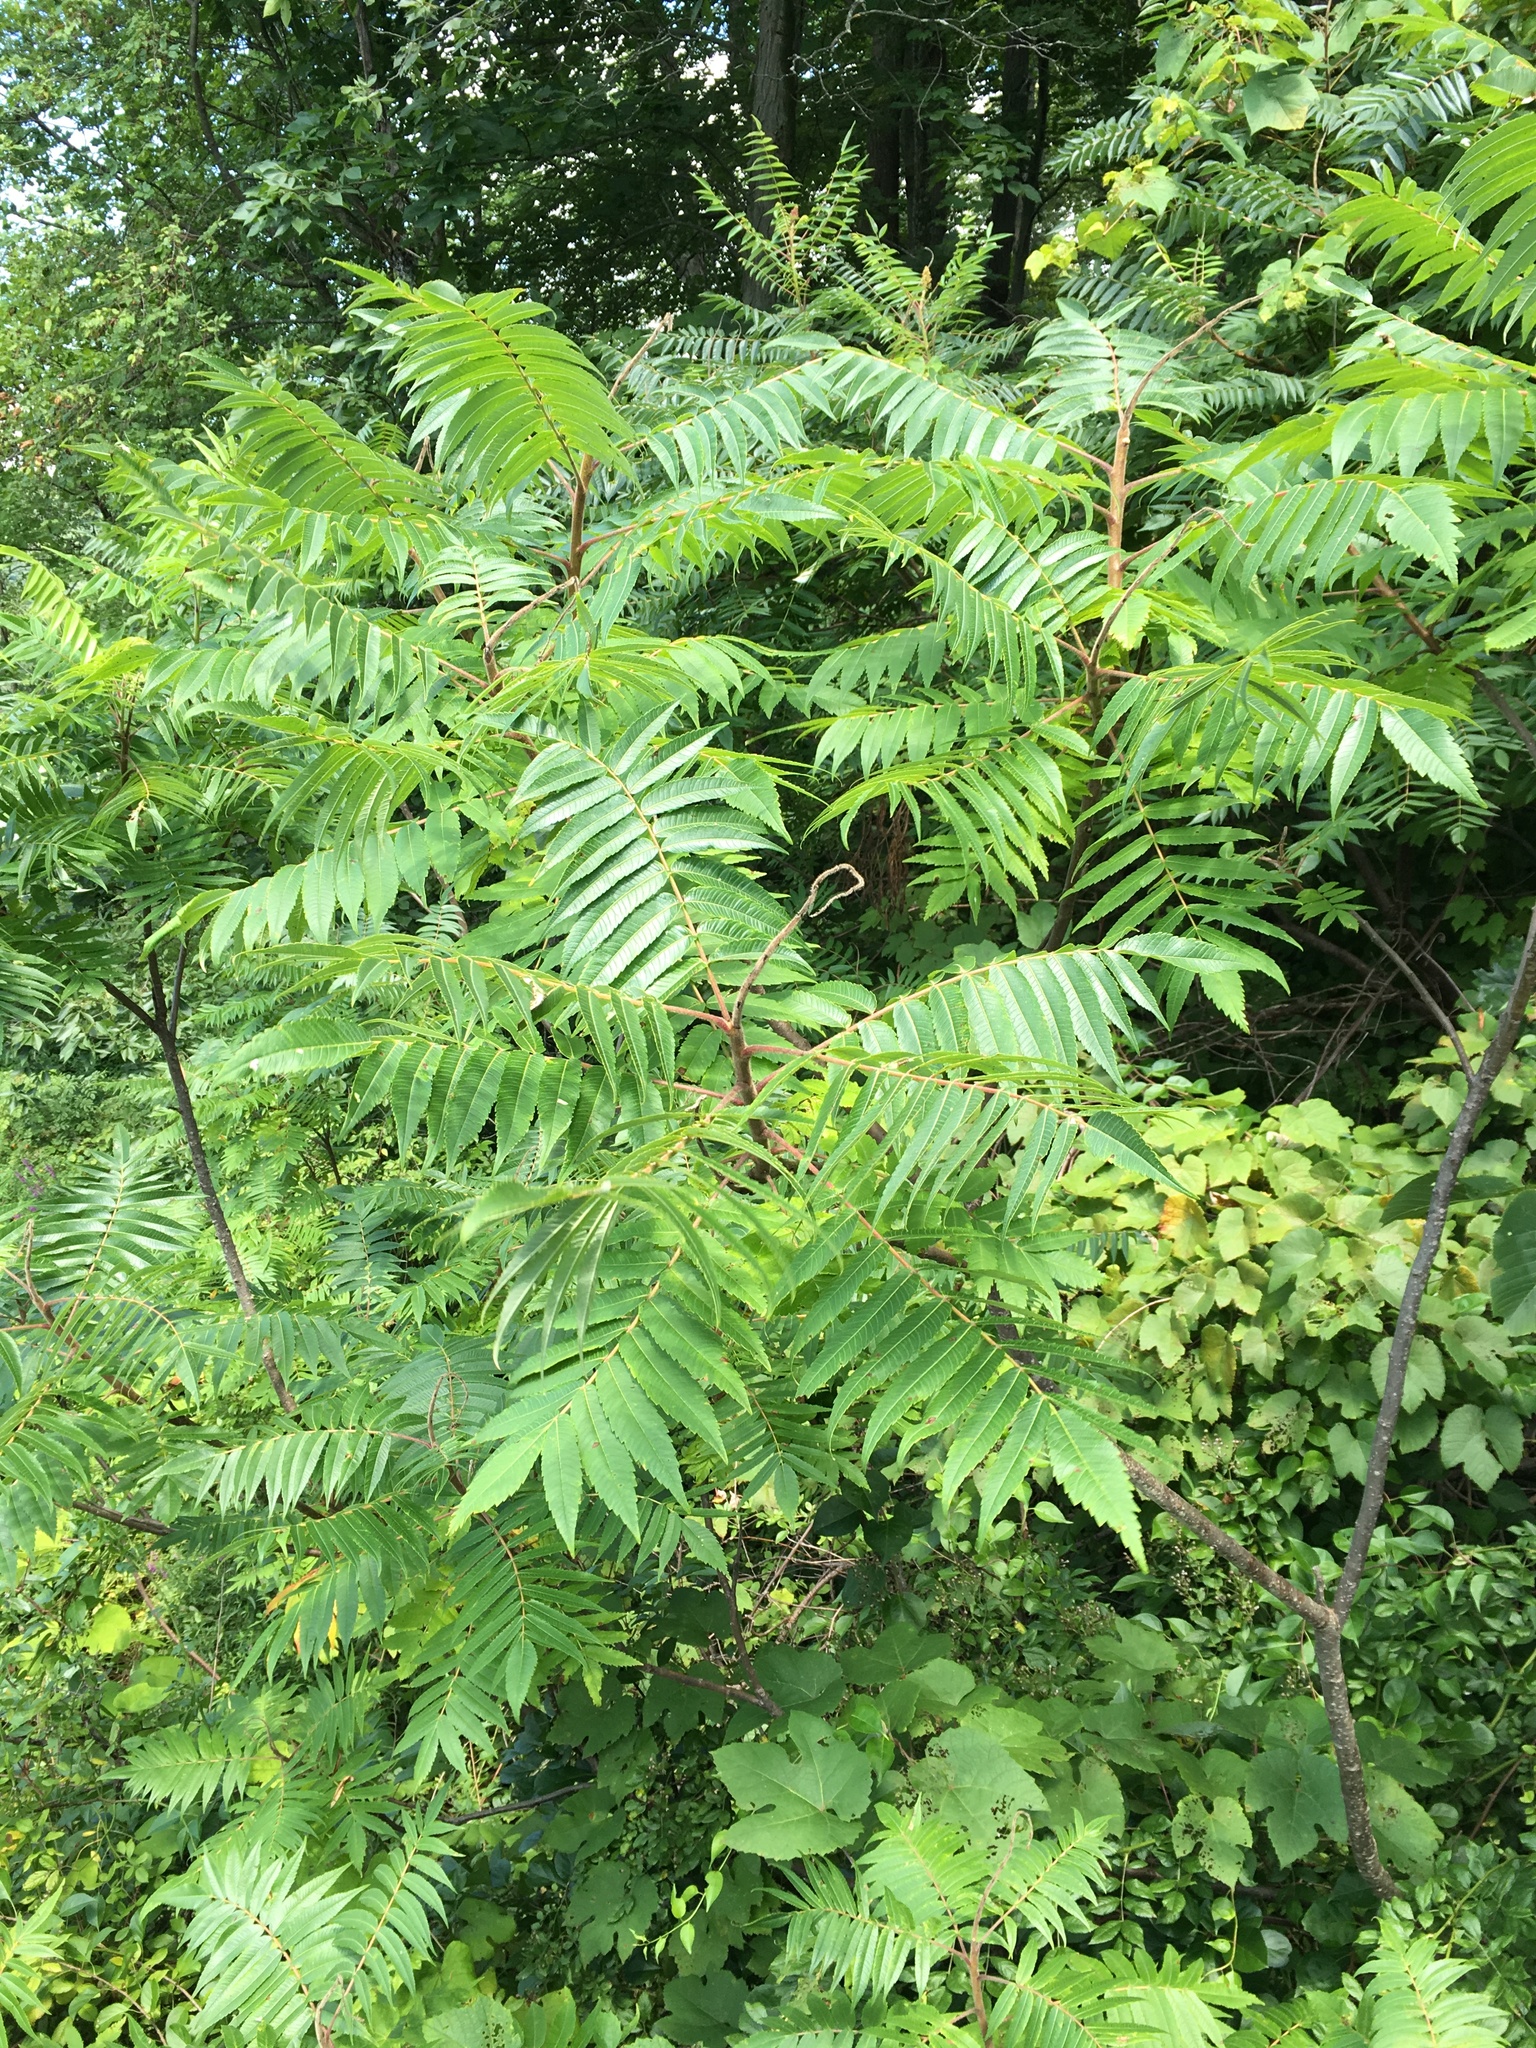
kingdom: Plantae
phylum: Tracheophyta
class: Magnoliopsida
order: Sapindales
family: Anacardiaceae
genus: Rhus
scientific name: Rhus typhina
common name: Staghorn sumac
